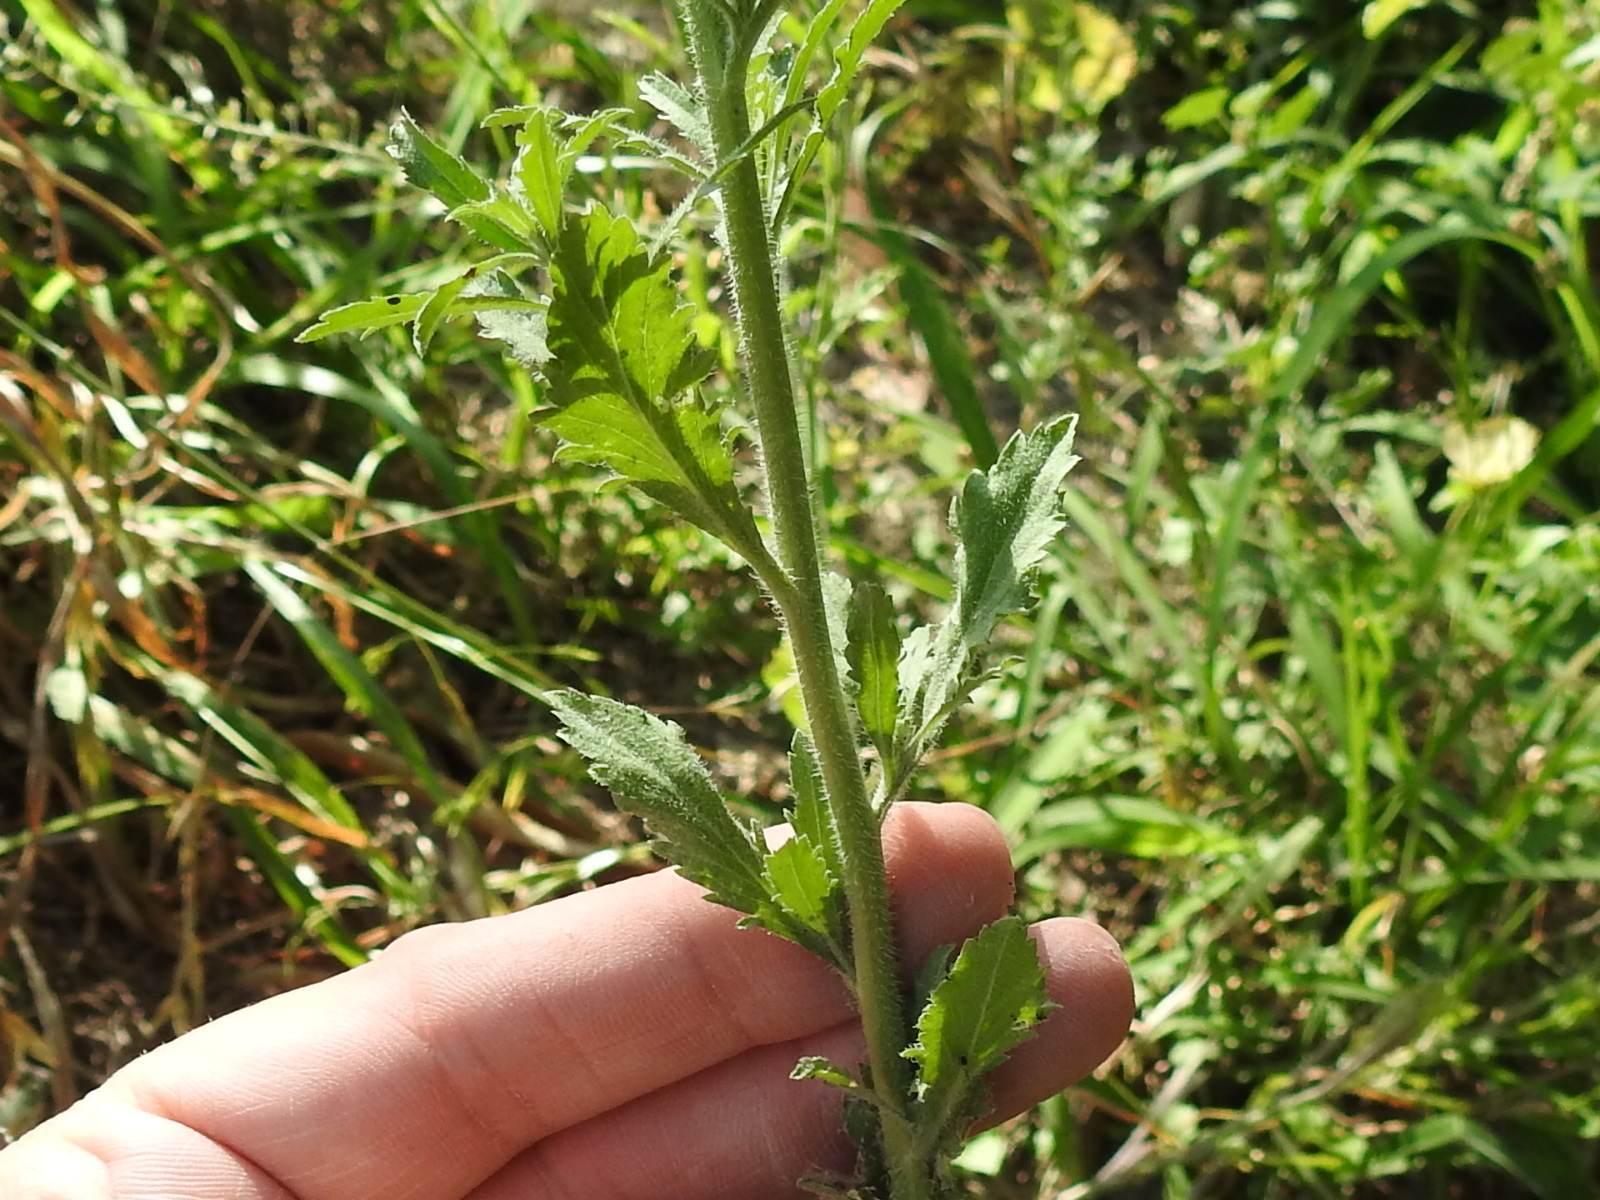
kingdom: Plantae
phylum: Tracheophyta
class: Magnoliopsida
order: Brassicales
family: Brassicaceae
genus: Lepidium
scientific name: Lepidium virginicum
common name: Least pepperwort
